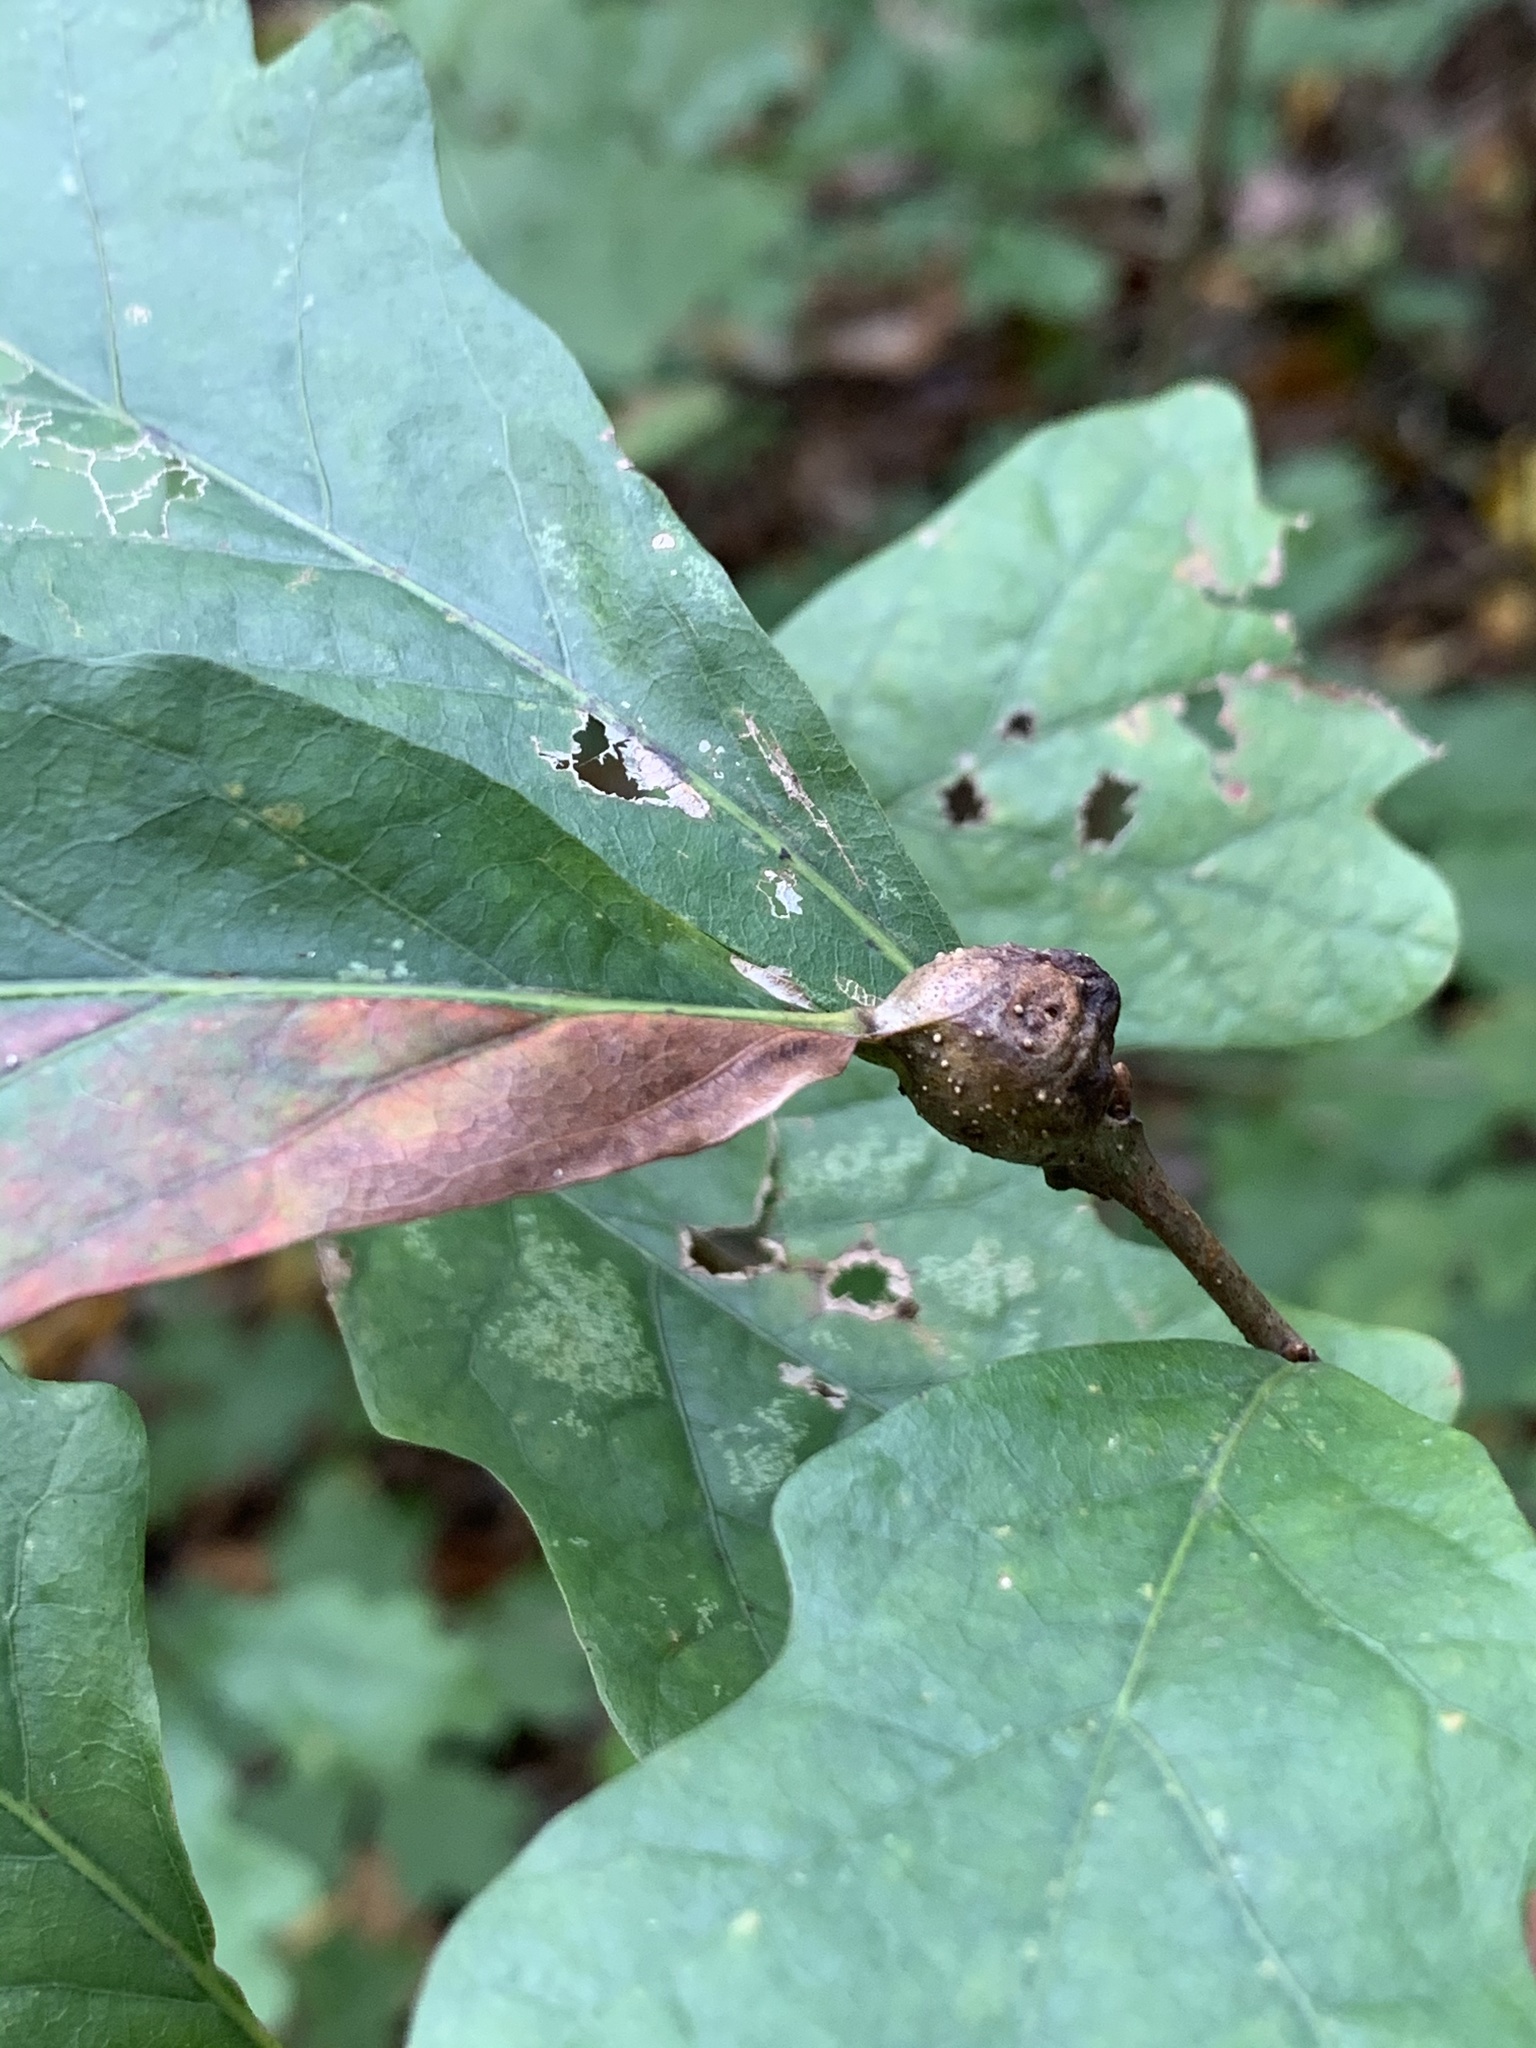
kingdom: Animalia
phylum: Arthropoda
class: Insecta
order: Hymenoptera
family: Cynipidae
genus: Andricus
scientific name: Andricus
